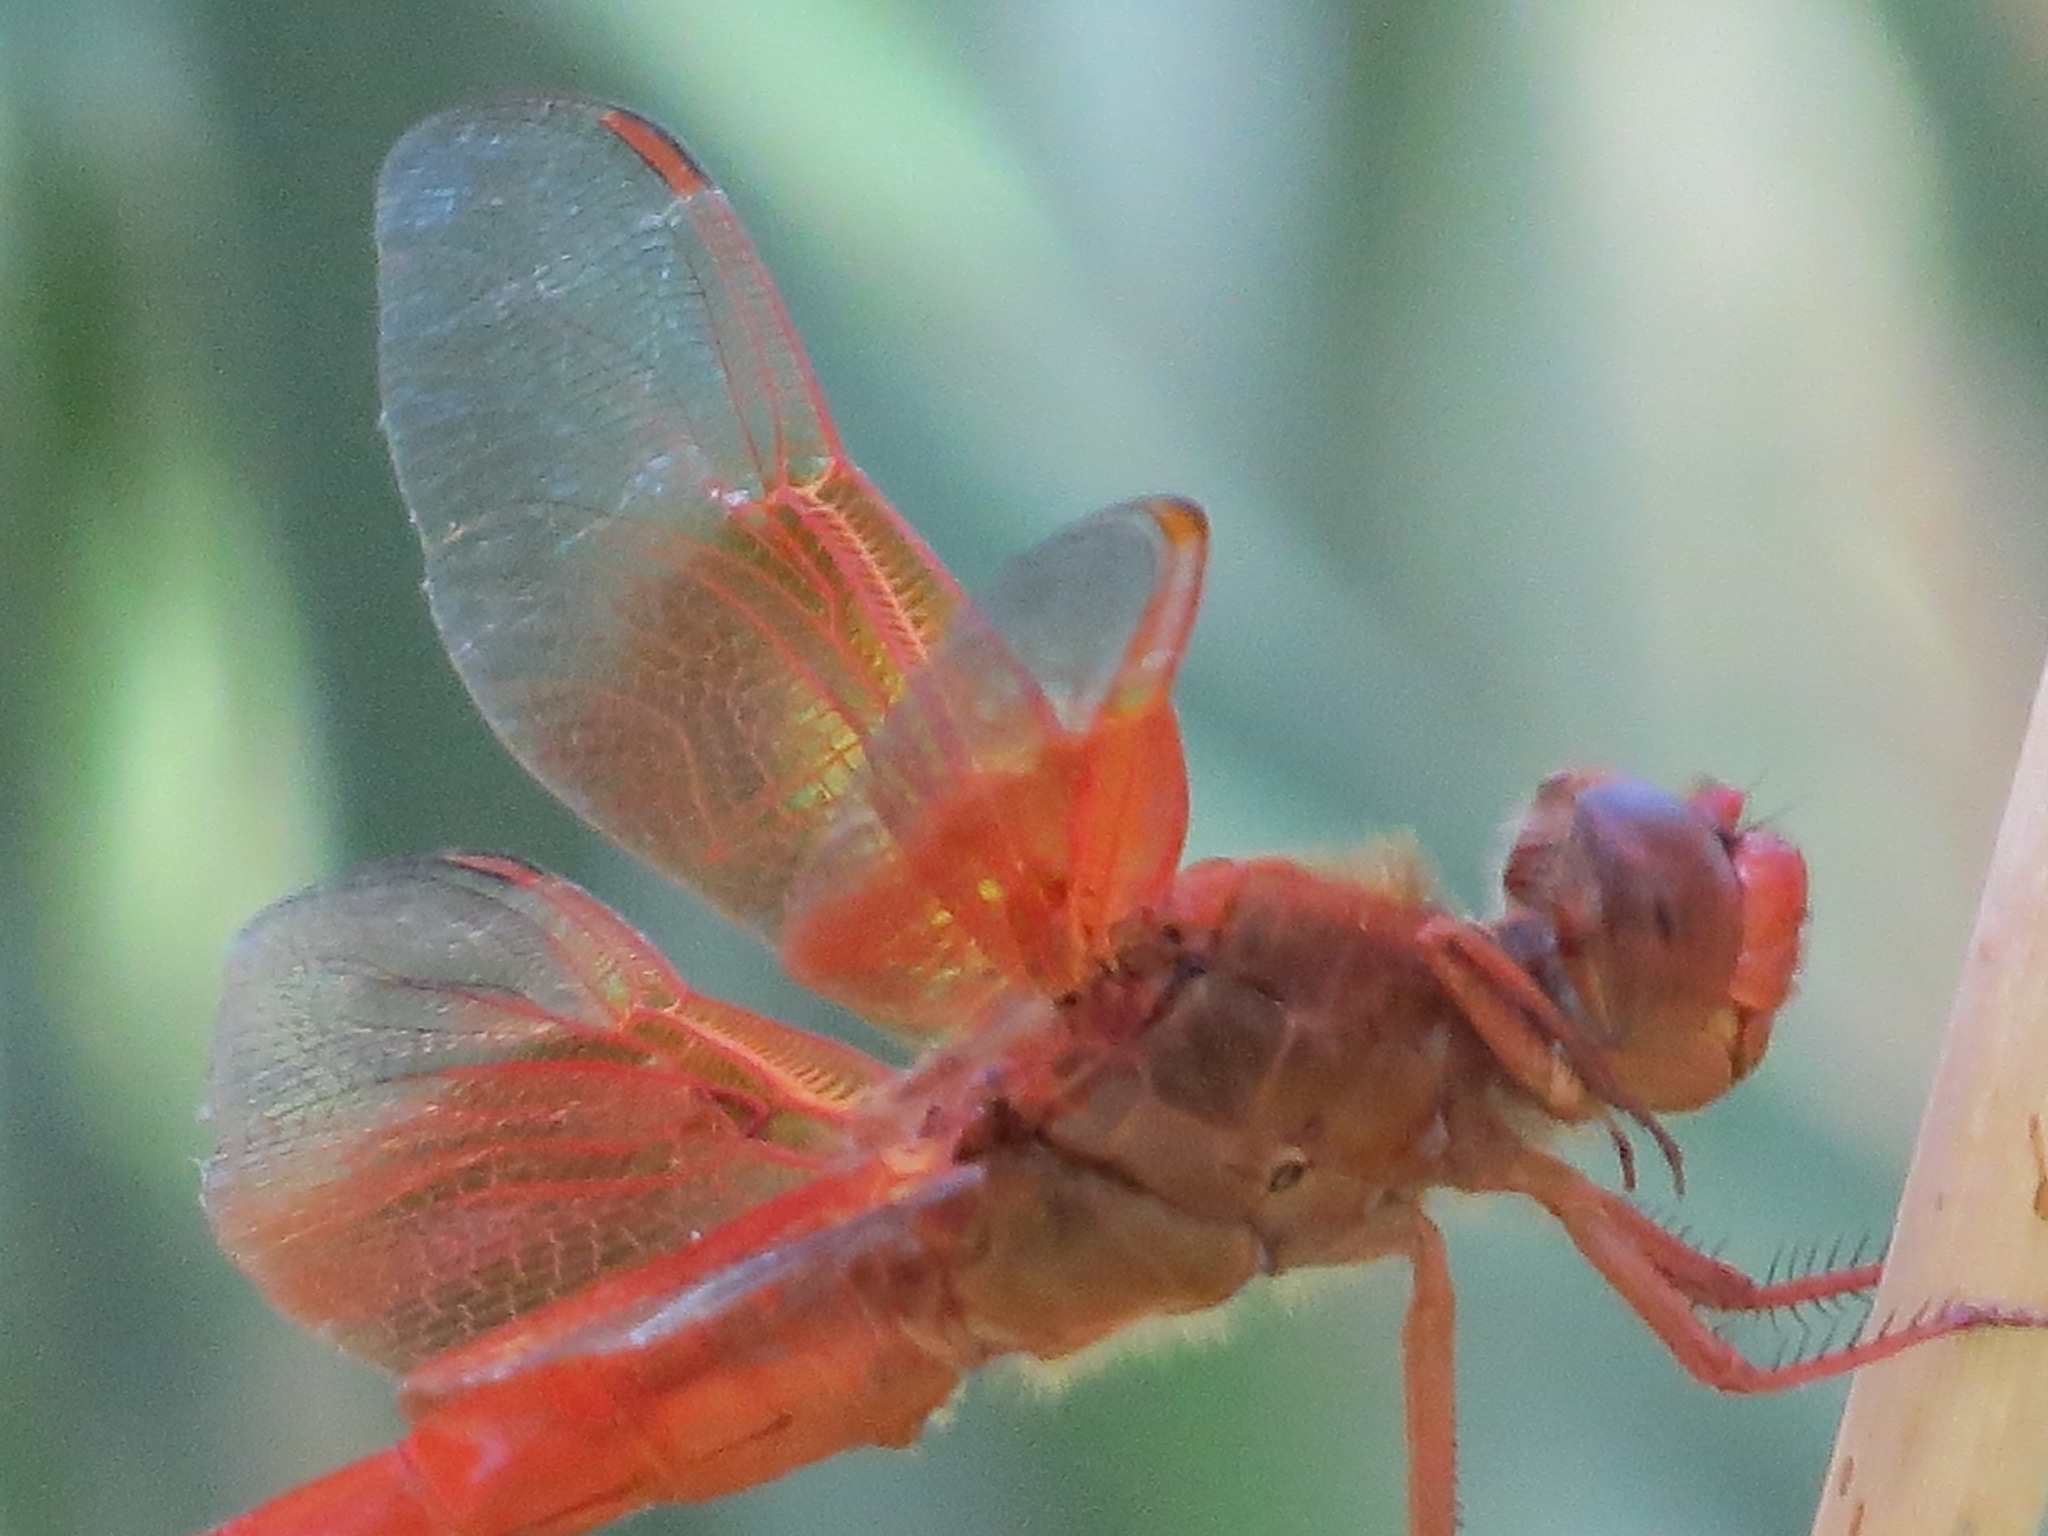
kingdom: Animalia
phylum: Arthropoda
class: Insecta
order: Odonata
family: Libellulidae
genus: Libellula
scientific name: Libellula saturata
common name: Flame skimmer
